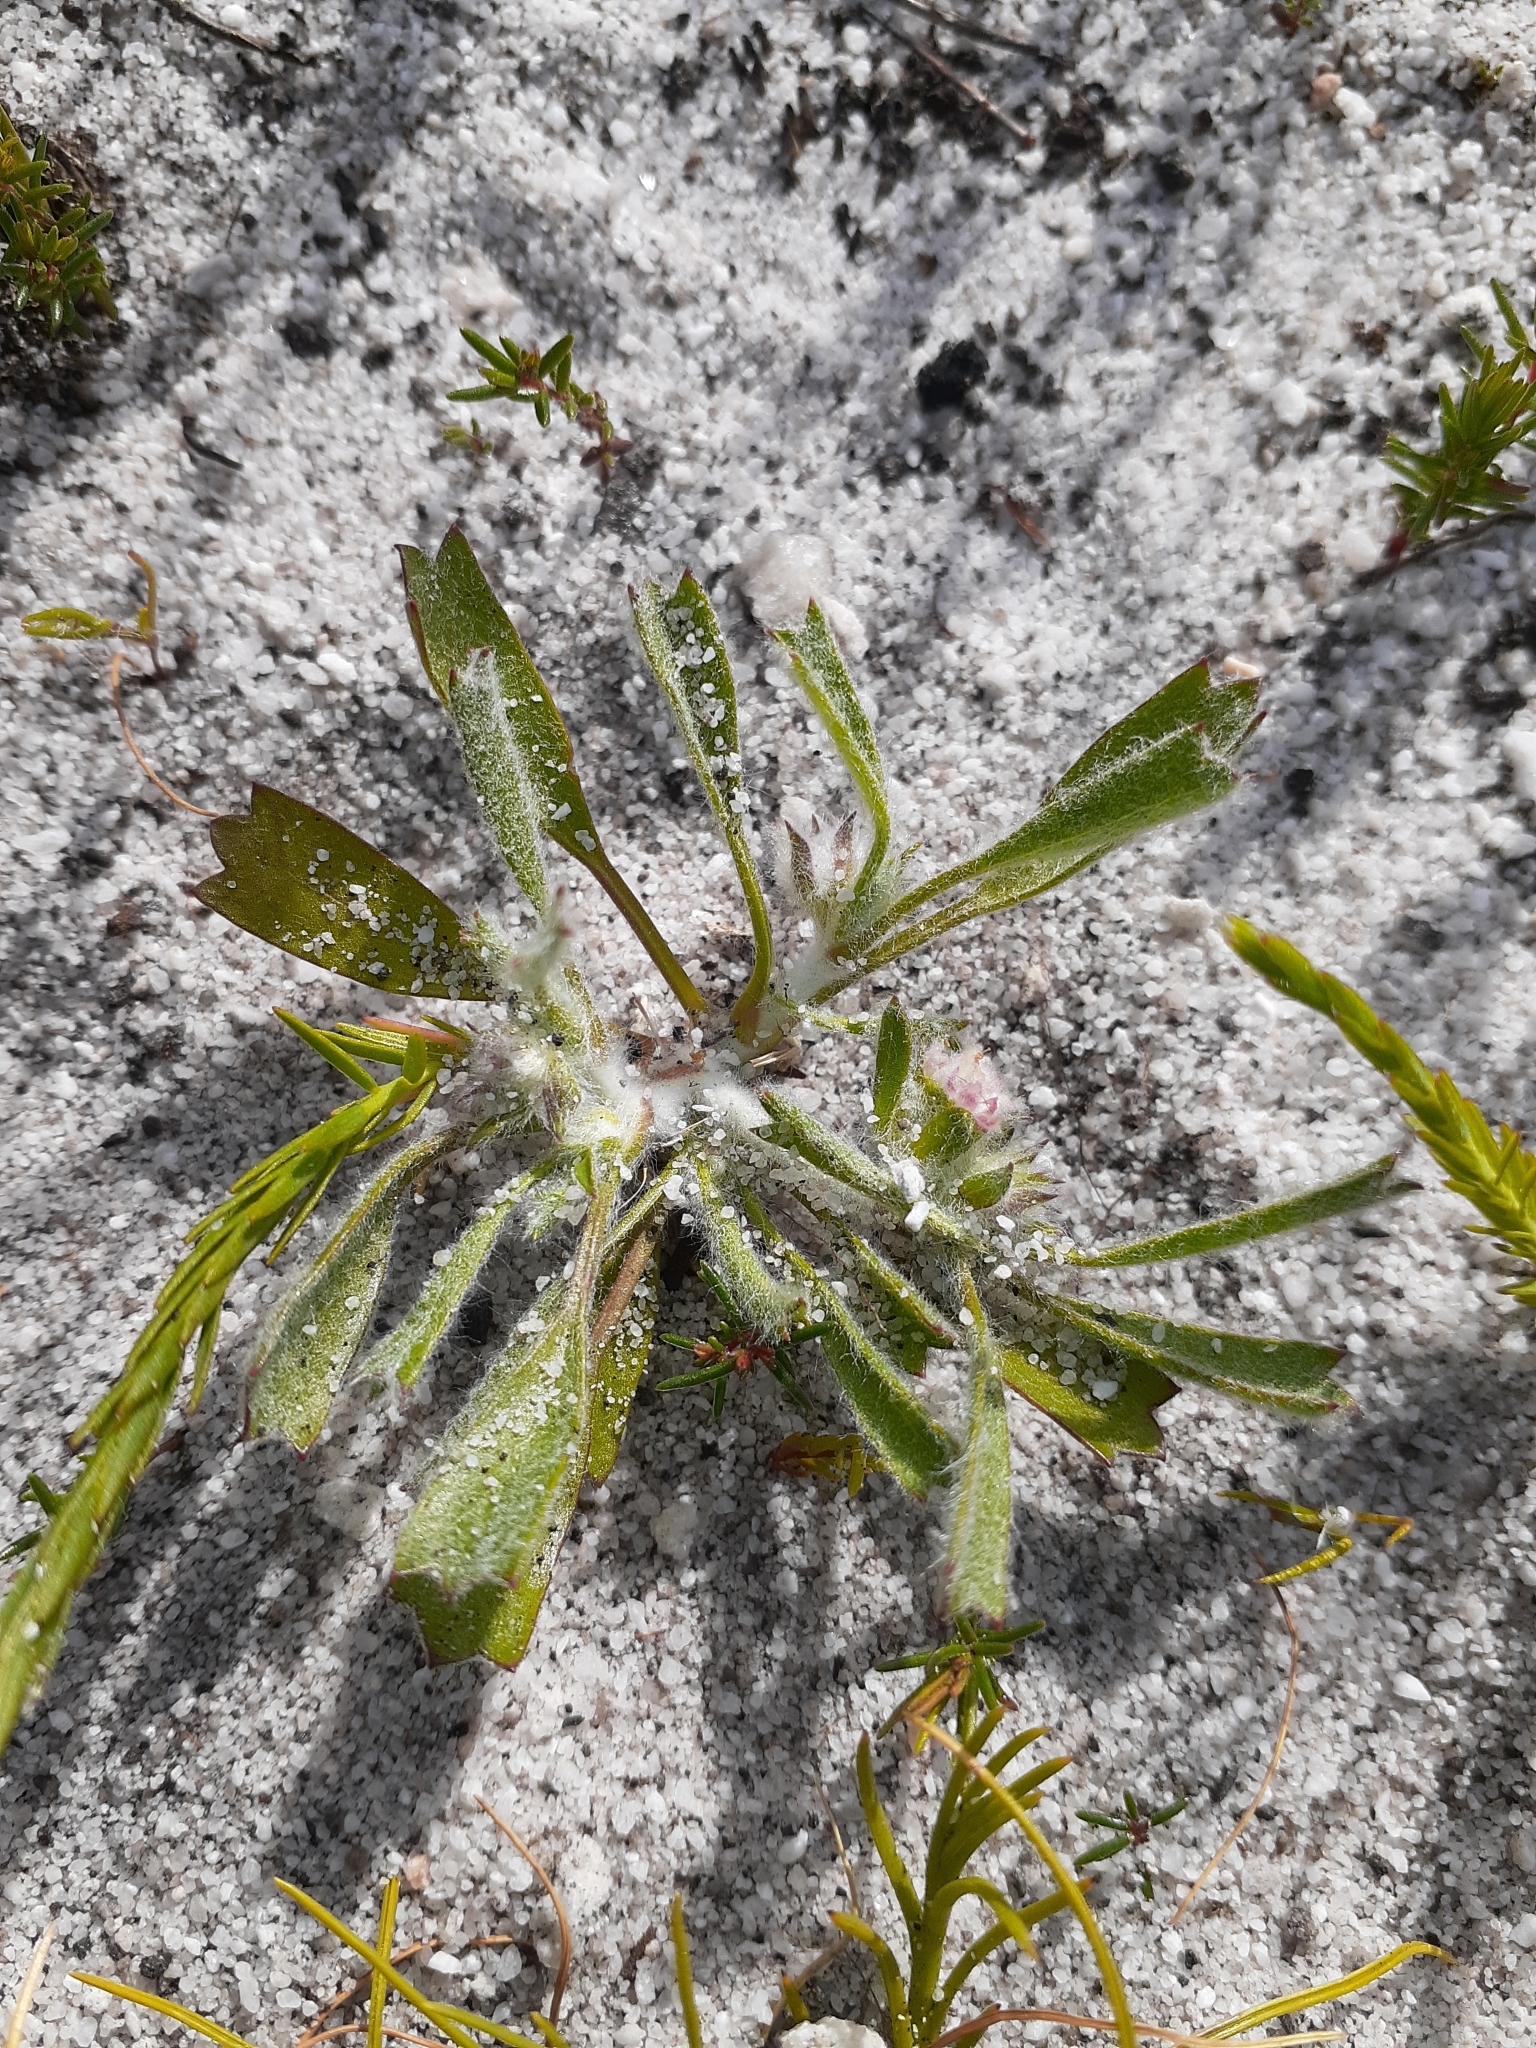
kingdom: Plantae
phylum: Tracheophyta
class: Magnoliopsida
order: Apiales
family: Apiaceae
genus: Centella
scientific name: Centella tridentata
